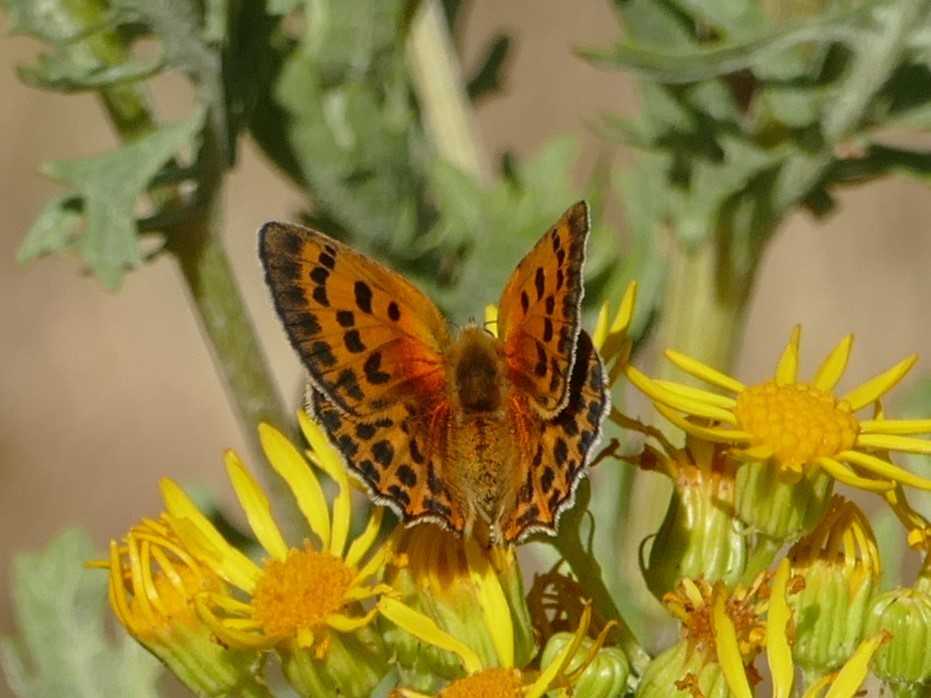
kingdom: Animalia
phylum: Arthropoda
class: Insecta
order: Lepidoptera
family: Lycaenidae
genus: Lycaena
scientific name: Lycaena virgaureae
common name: Scarce copper
